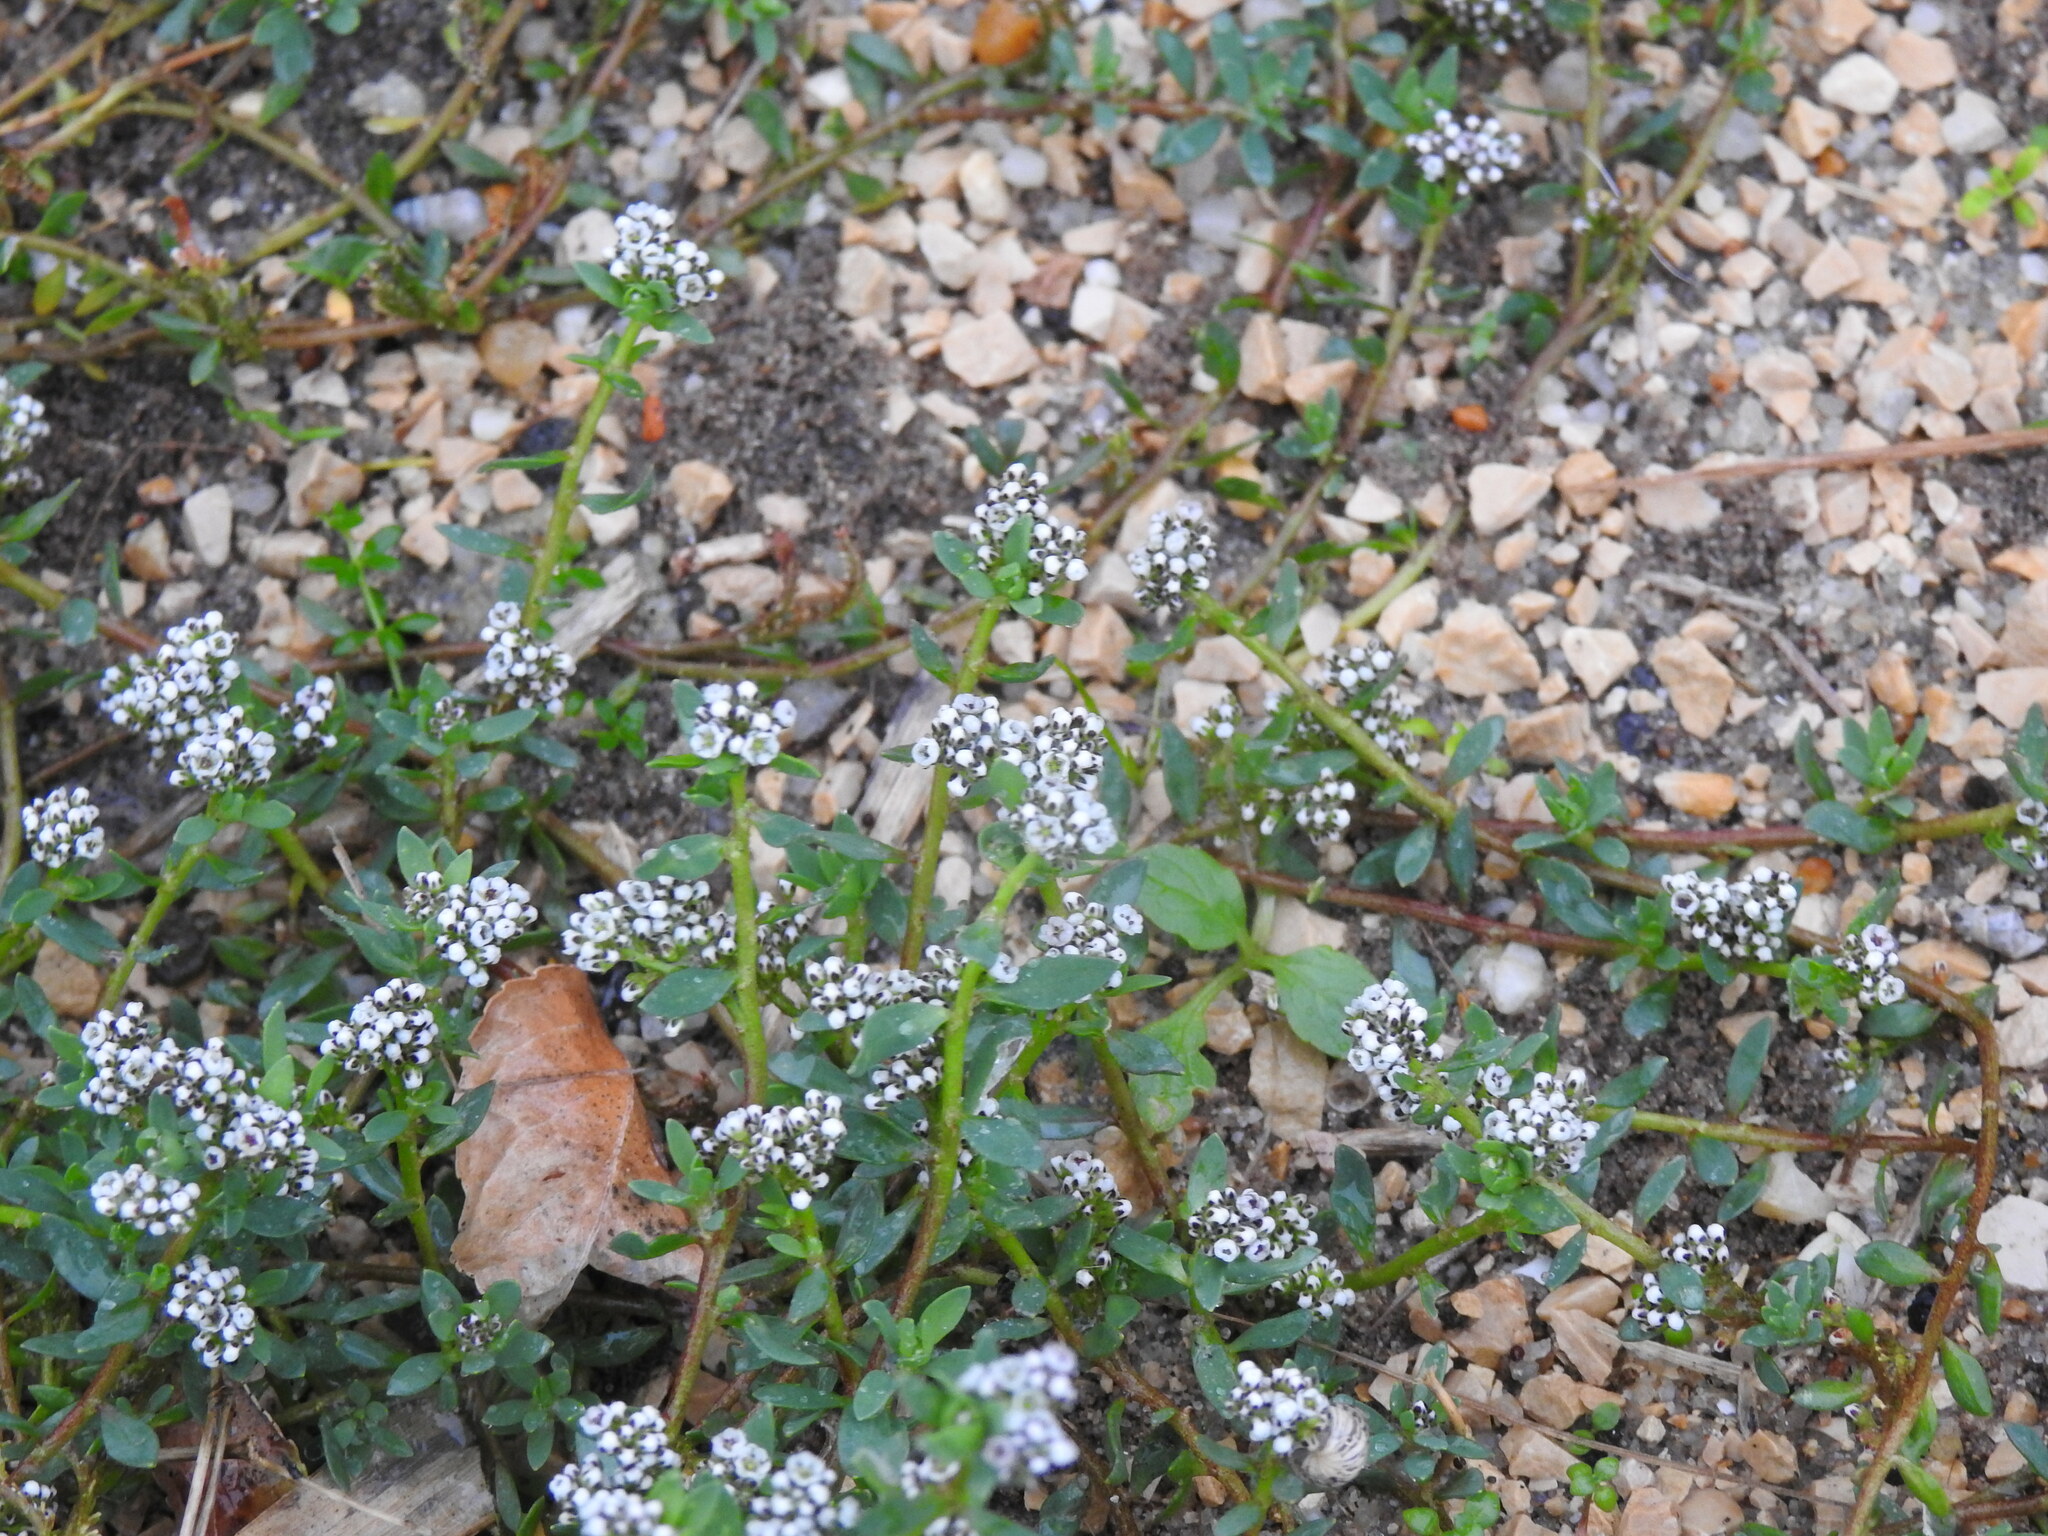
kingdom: Plantae
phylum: Tracheophyta
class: Magnoliopsida
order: Caryophyllales
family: Caryophyllaceae
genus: Corrigiola
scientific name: Corrigiola litoralis
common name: Strapwort
